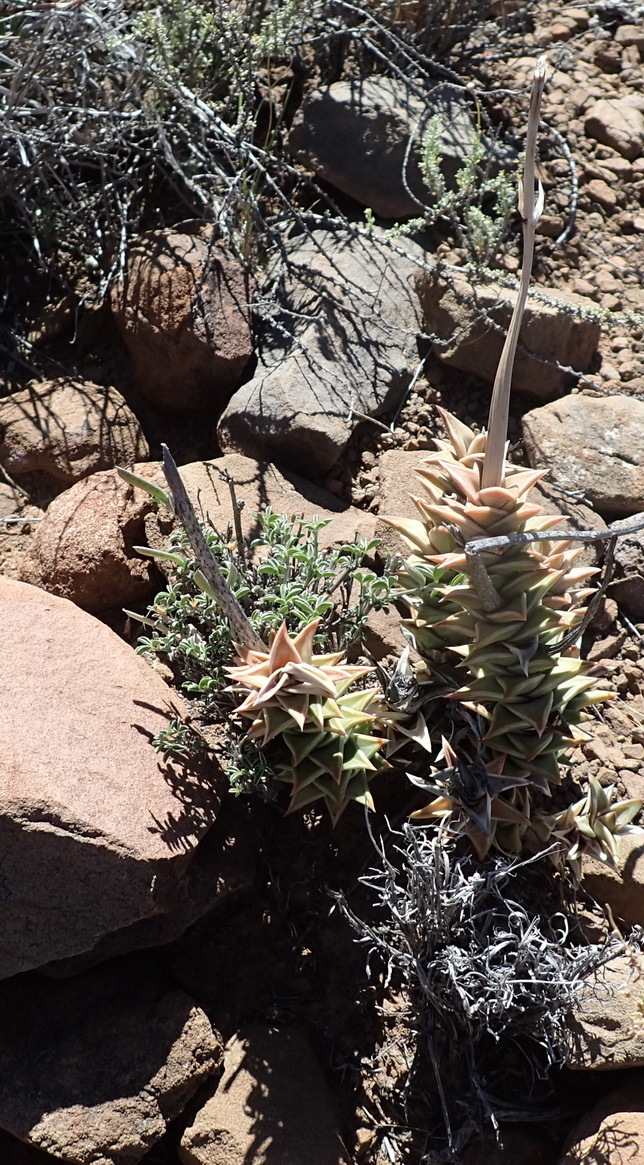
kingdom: Plantae
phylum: Tracheophyta
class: Liliopsida
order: Asparagales
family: Asphodelaceae
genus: Astroloba
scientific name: Astroloba robusta
